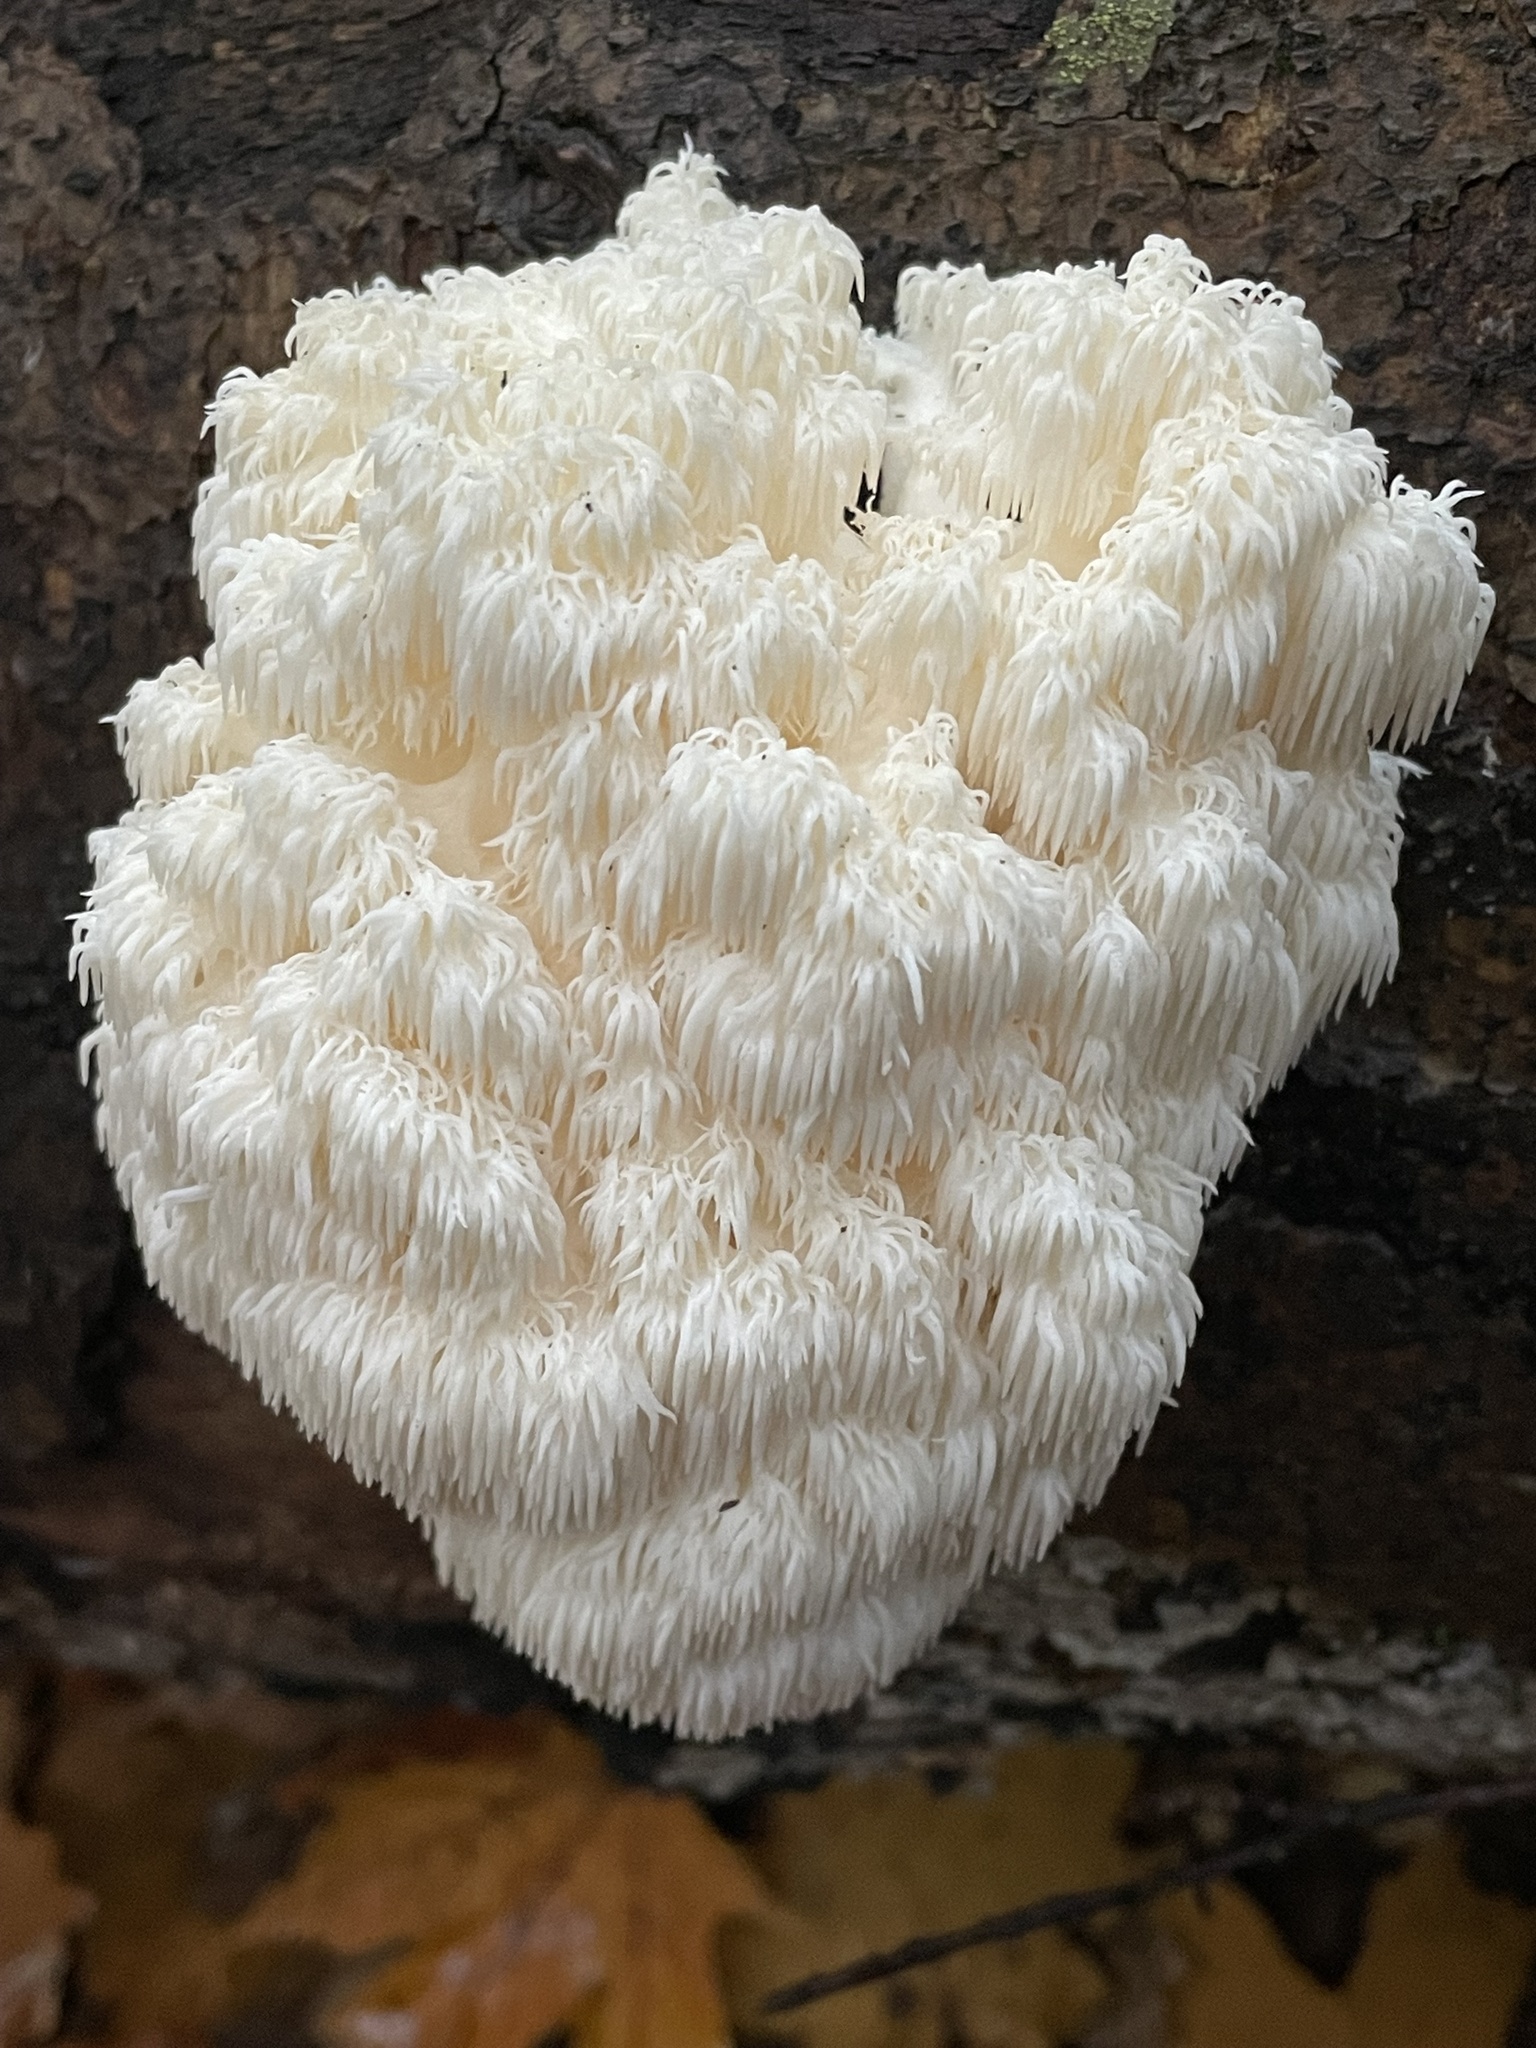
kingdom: Fungi
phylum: Basidiomycota
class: Agaricomycetes
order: Russulales
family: Hericiaceae
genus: Hericium
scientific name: Hericium americanum
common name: Bear's head tooth
